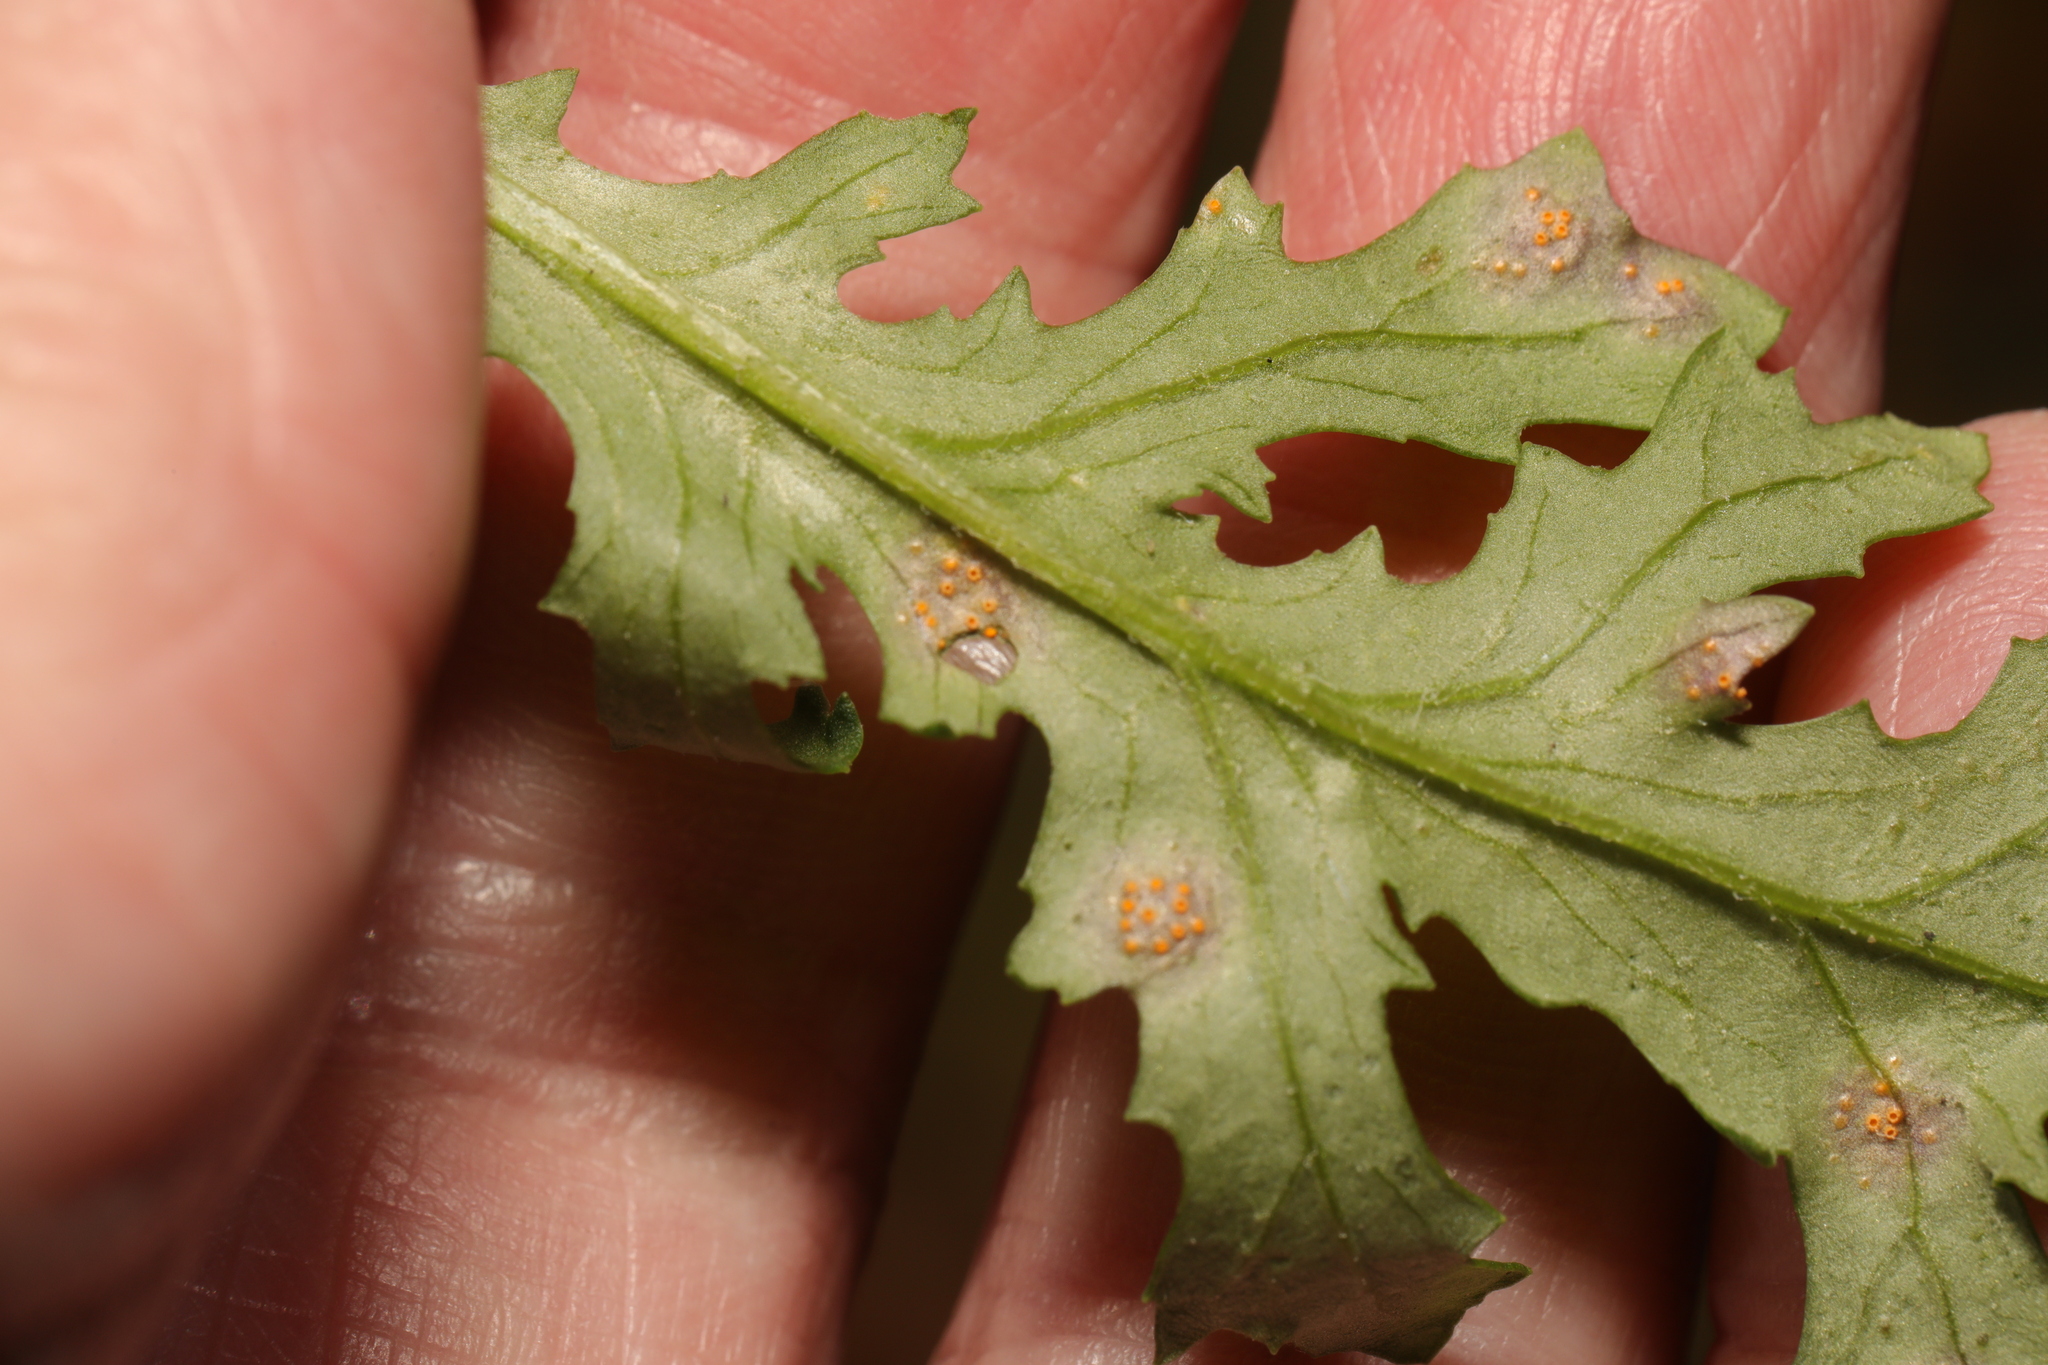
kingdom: Fungi
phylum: Basidiomycota
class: Pucciniomycetes
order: Pucciniales
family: Pucciniaceae
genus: Puccinia
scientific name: Puccinia lagenophorae
